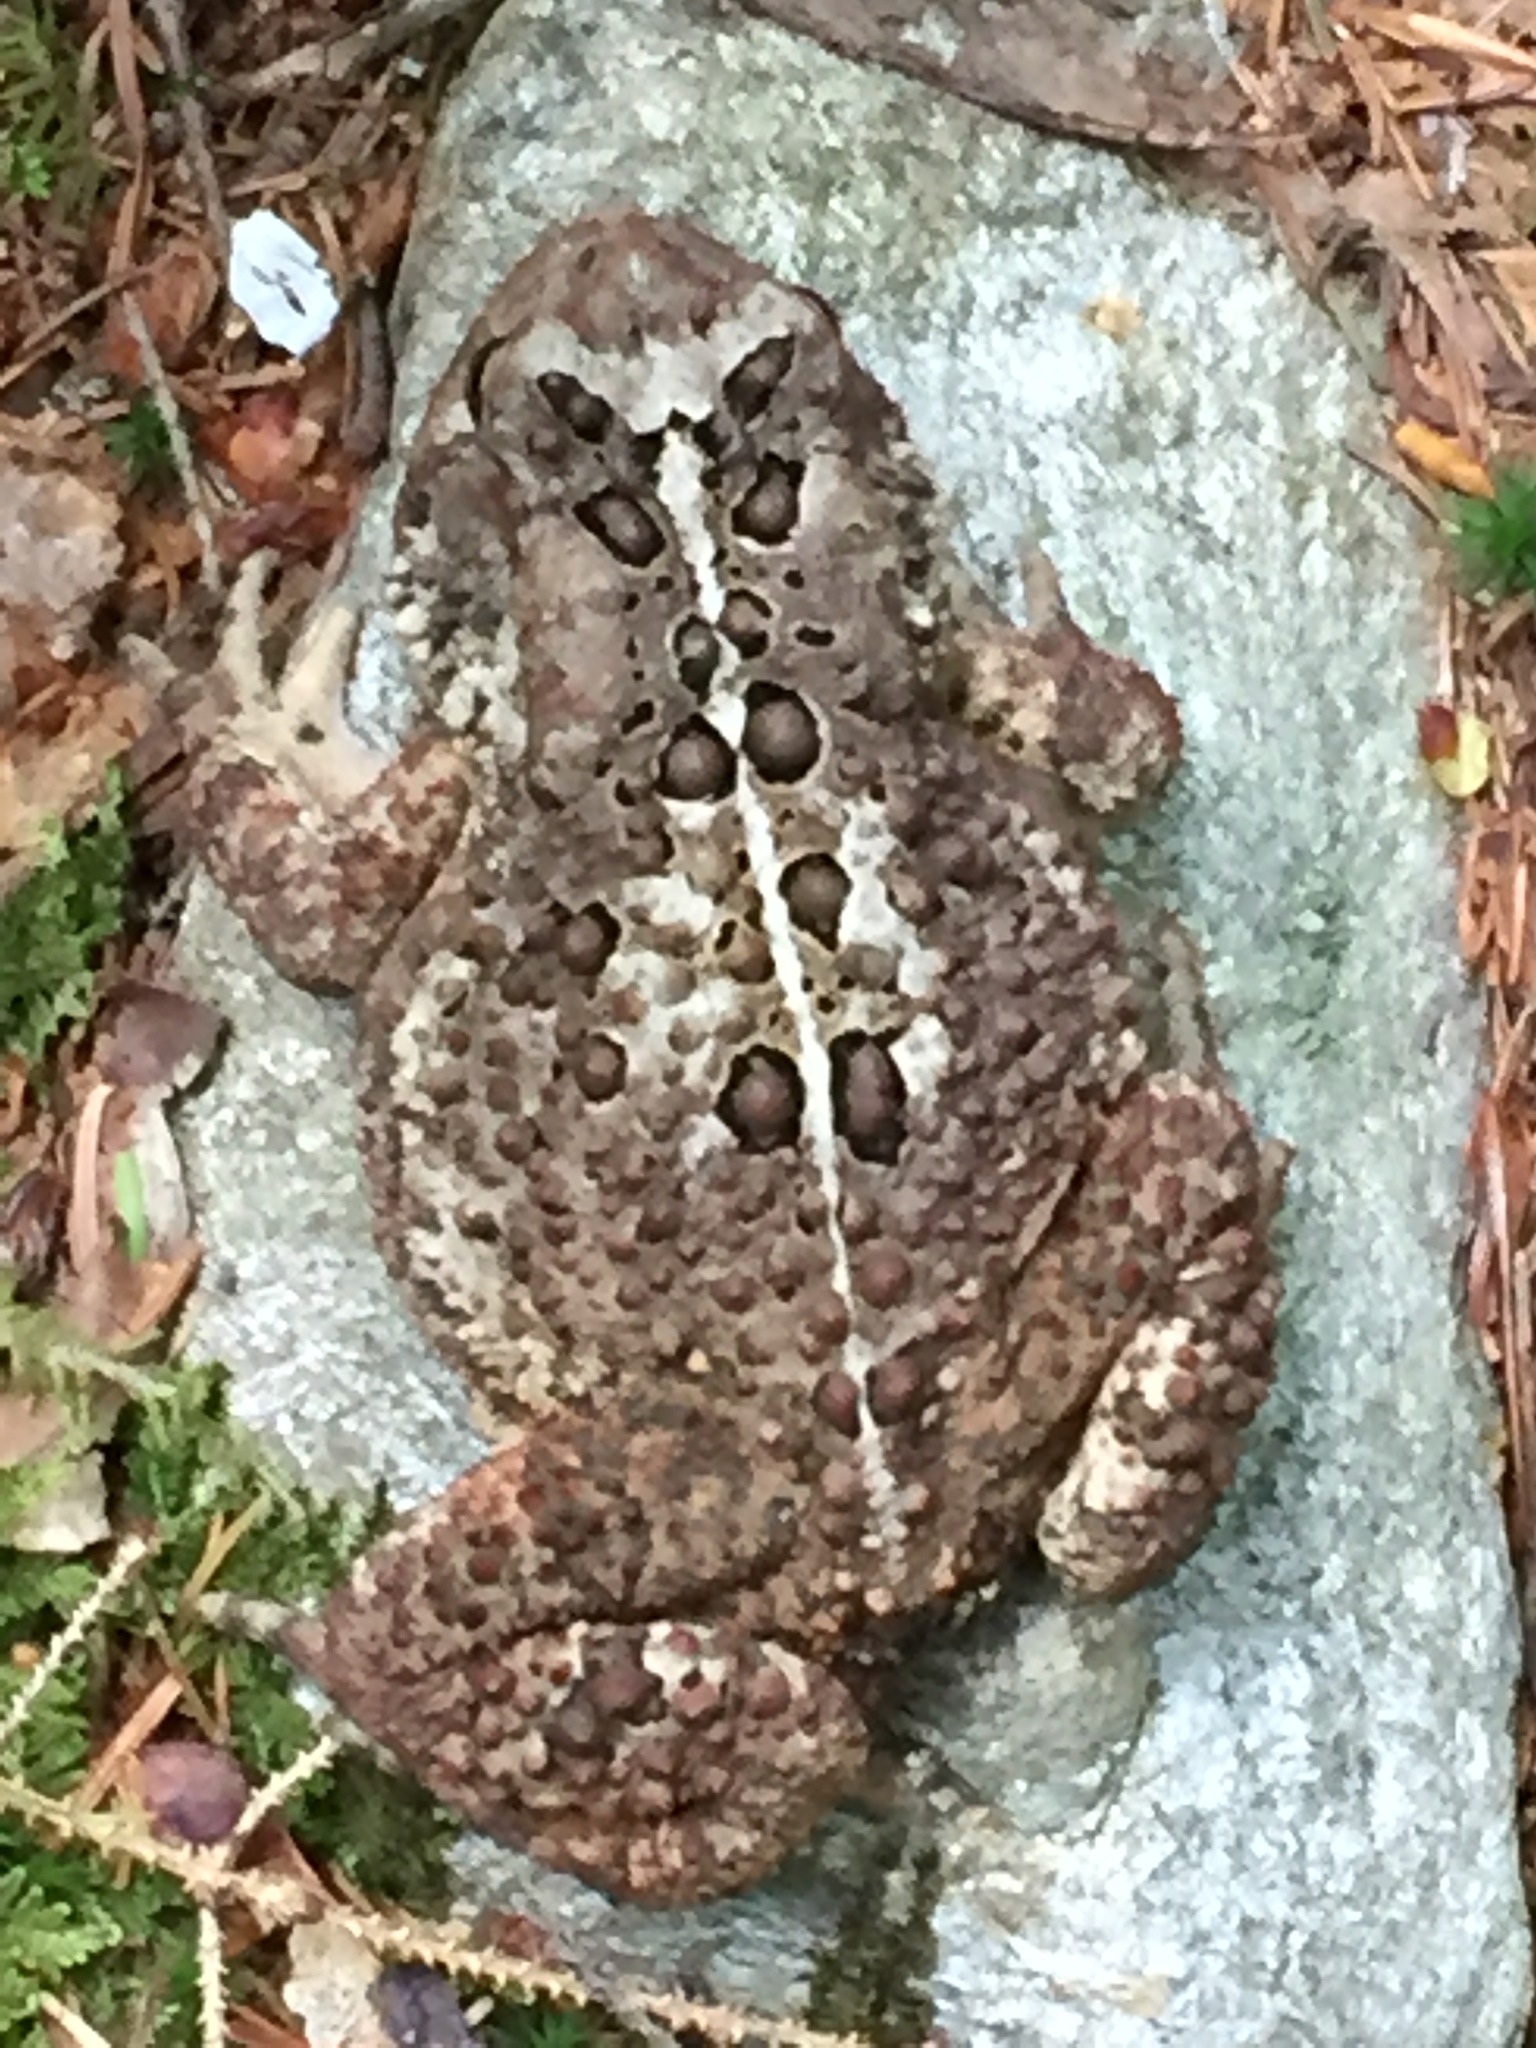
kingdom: Animalia
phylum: Chordata
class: Amphibia
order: Anura
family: Bufonidae
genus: Anaxyrus
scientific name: Anaxyrus americanus
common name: American toad
